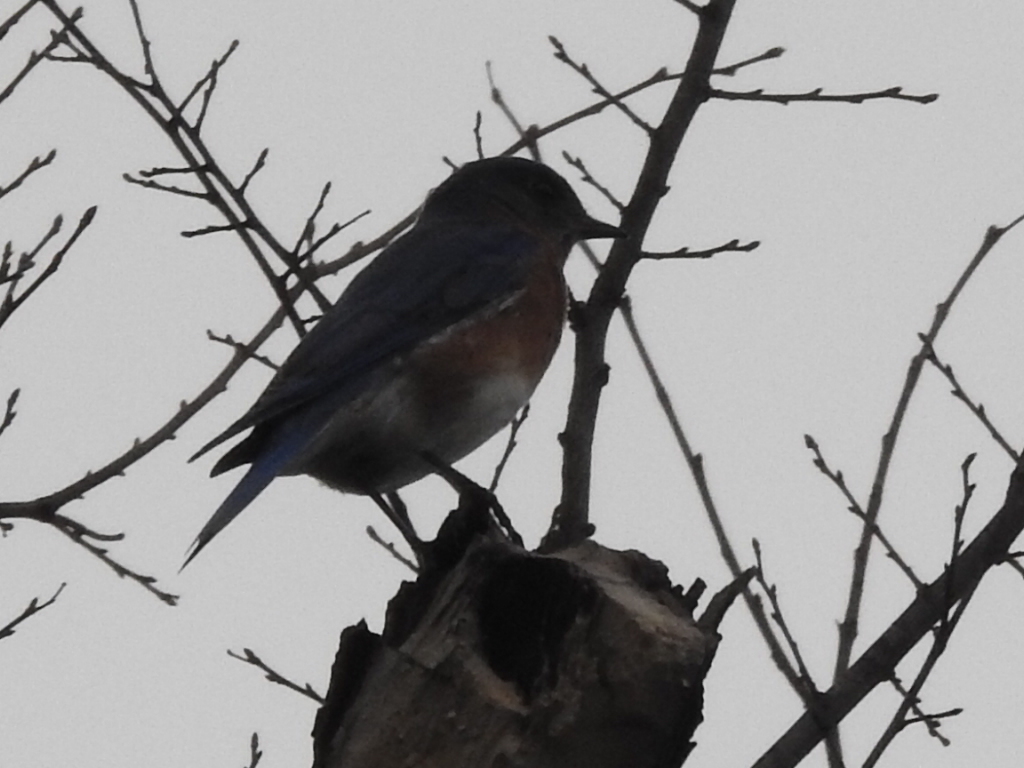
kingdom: Animalia
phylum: Chordata
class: Aves
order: Passeriformes
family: Turdidae
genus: Sialia
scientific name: Sialia sialis
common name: Eastern bluebird
